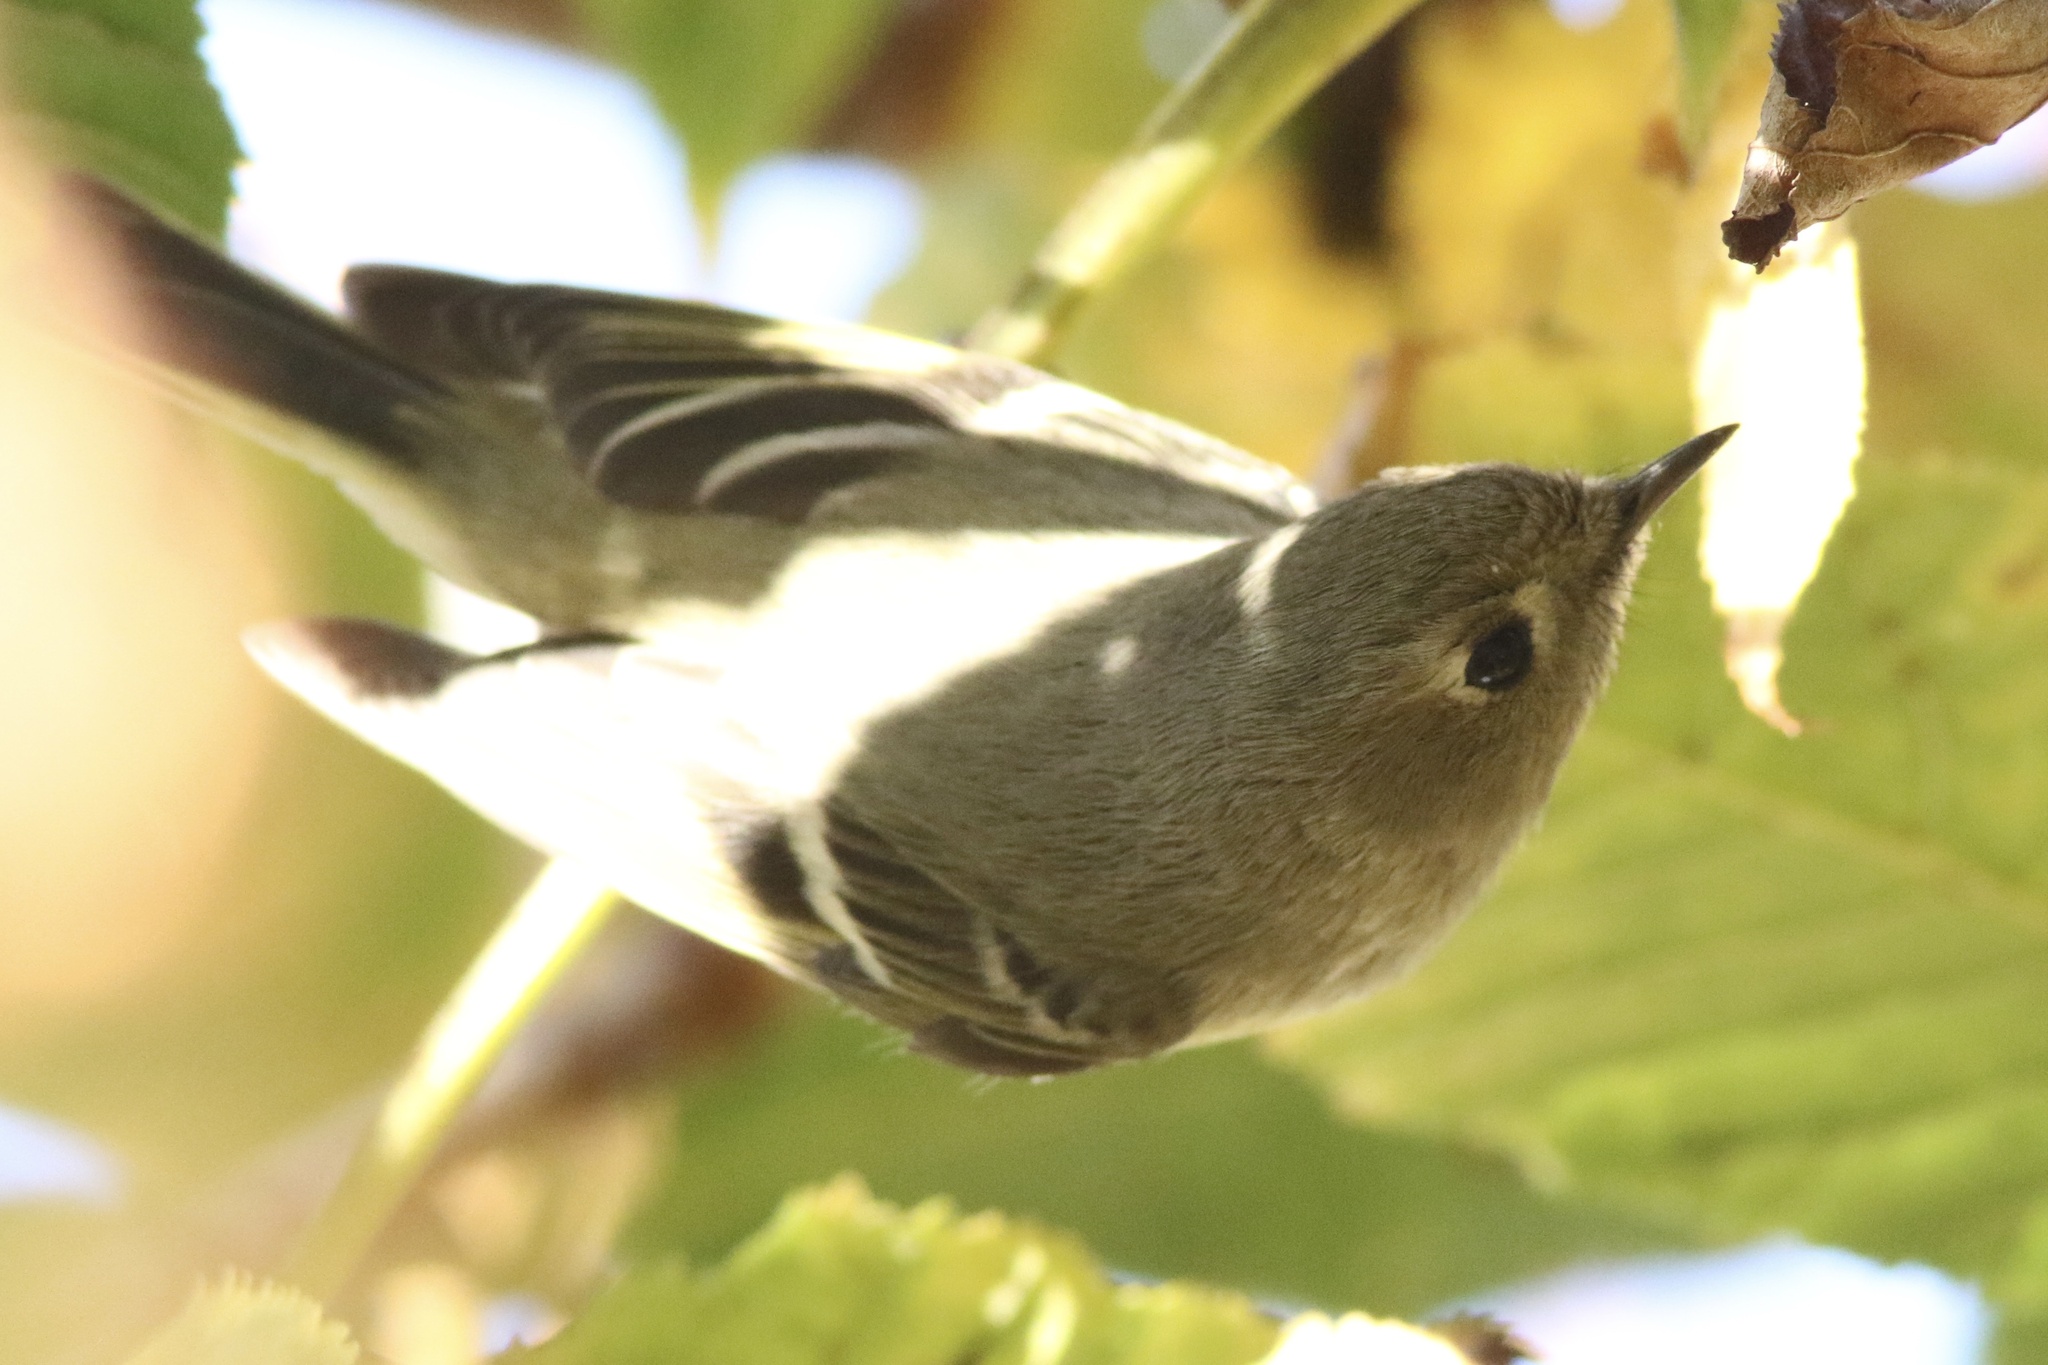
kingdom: Animalia
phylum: Chordata
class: Aves
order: Passeriformes
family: Regulidae
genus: Regulus
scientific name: Regulus calendula
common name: Ruby-crowned kinglet
